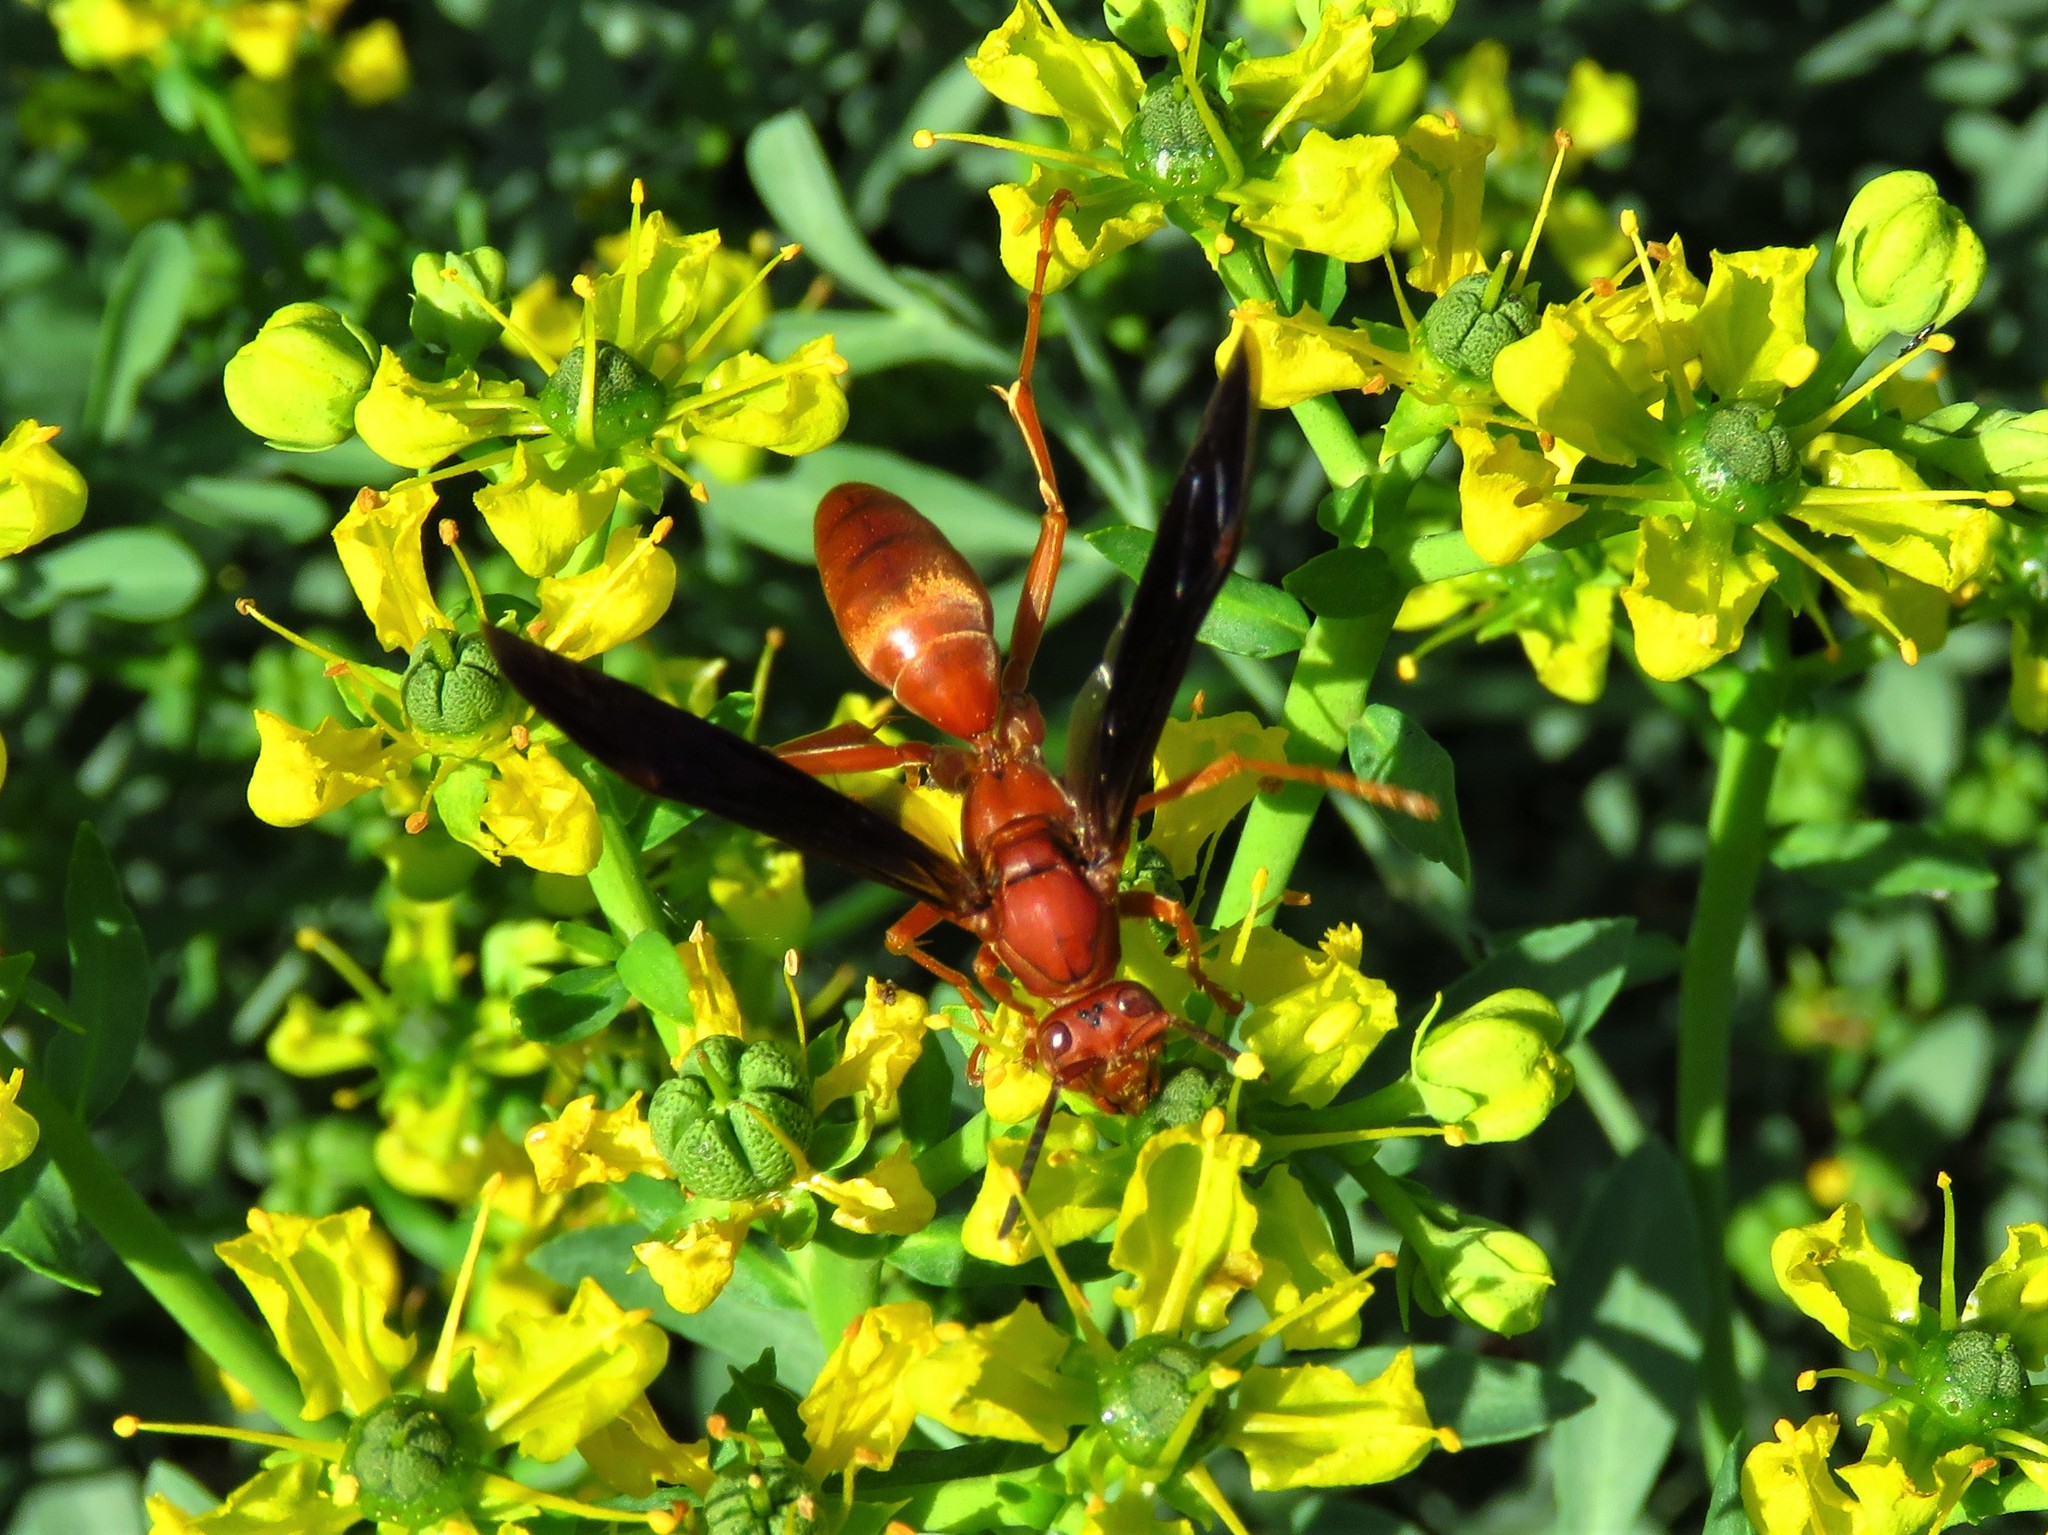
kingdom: Animalia
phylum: Arthropoda
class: Insecta
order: Hymenoptera
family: Eumenidae
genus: Polistes
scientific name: Polistes carolina
